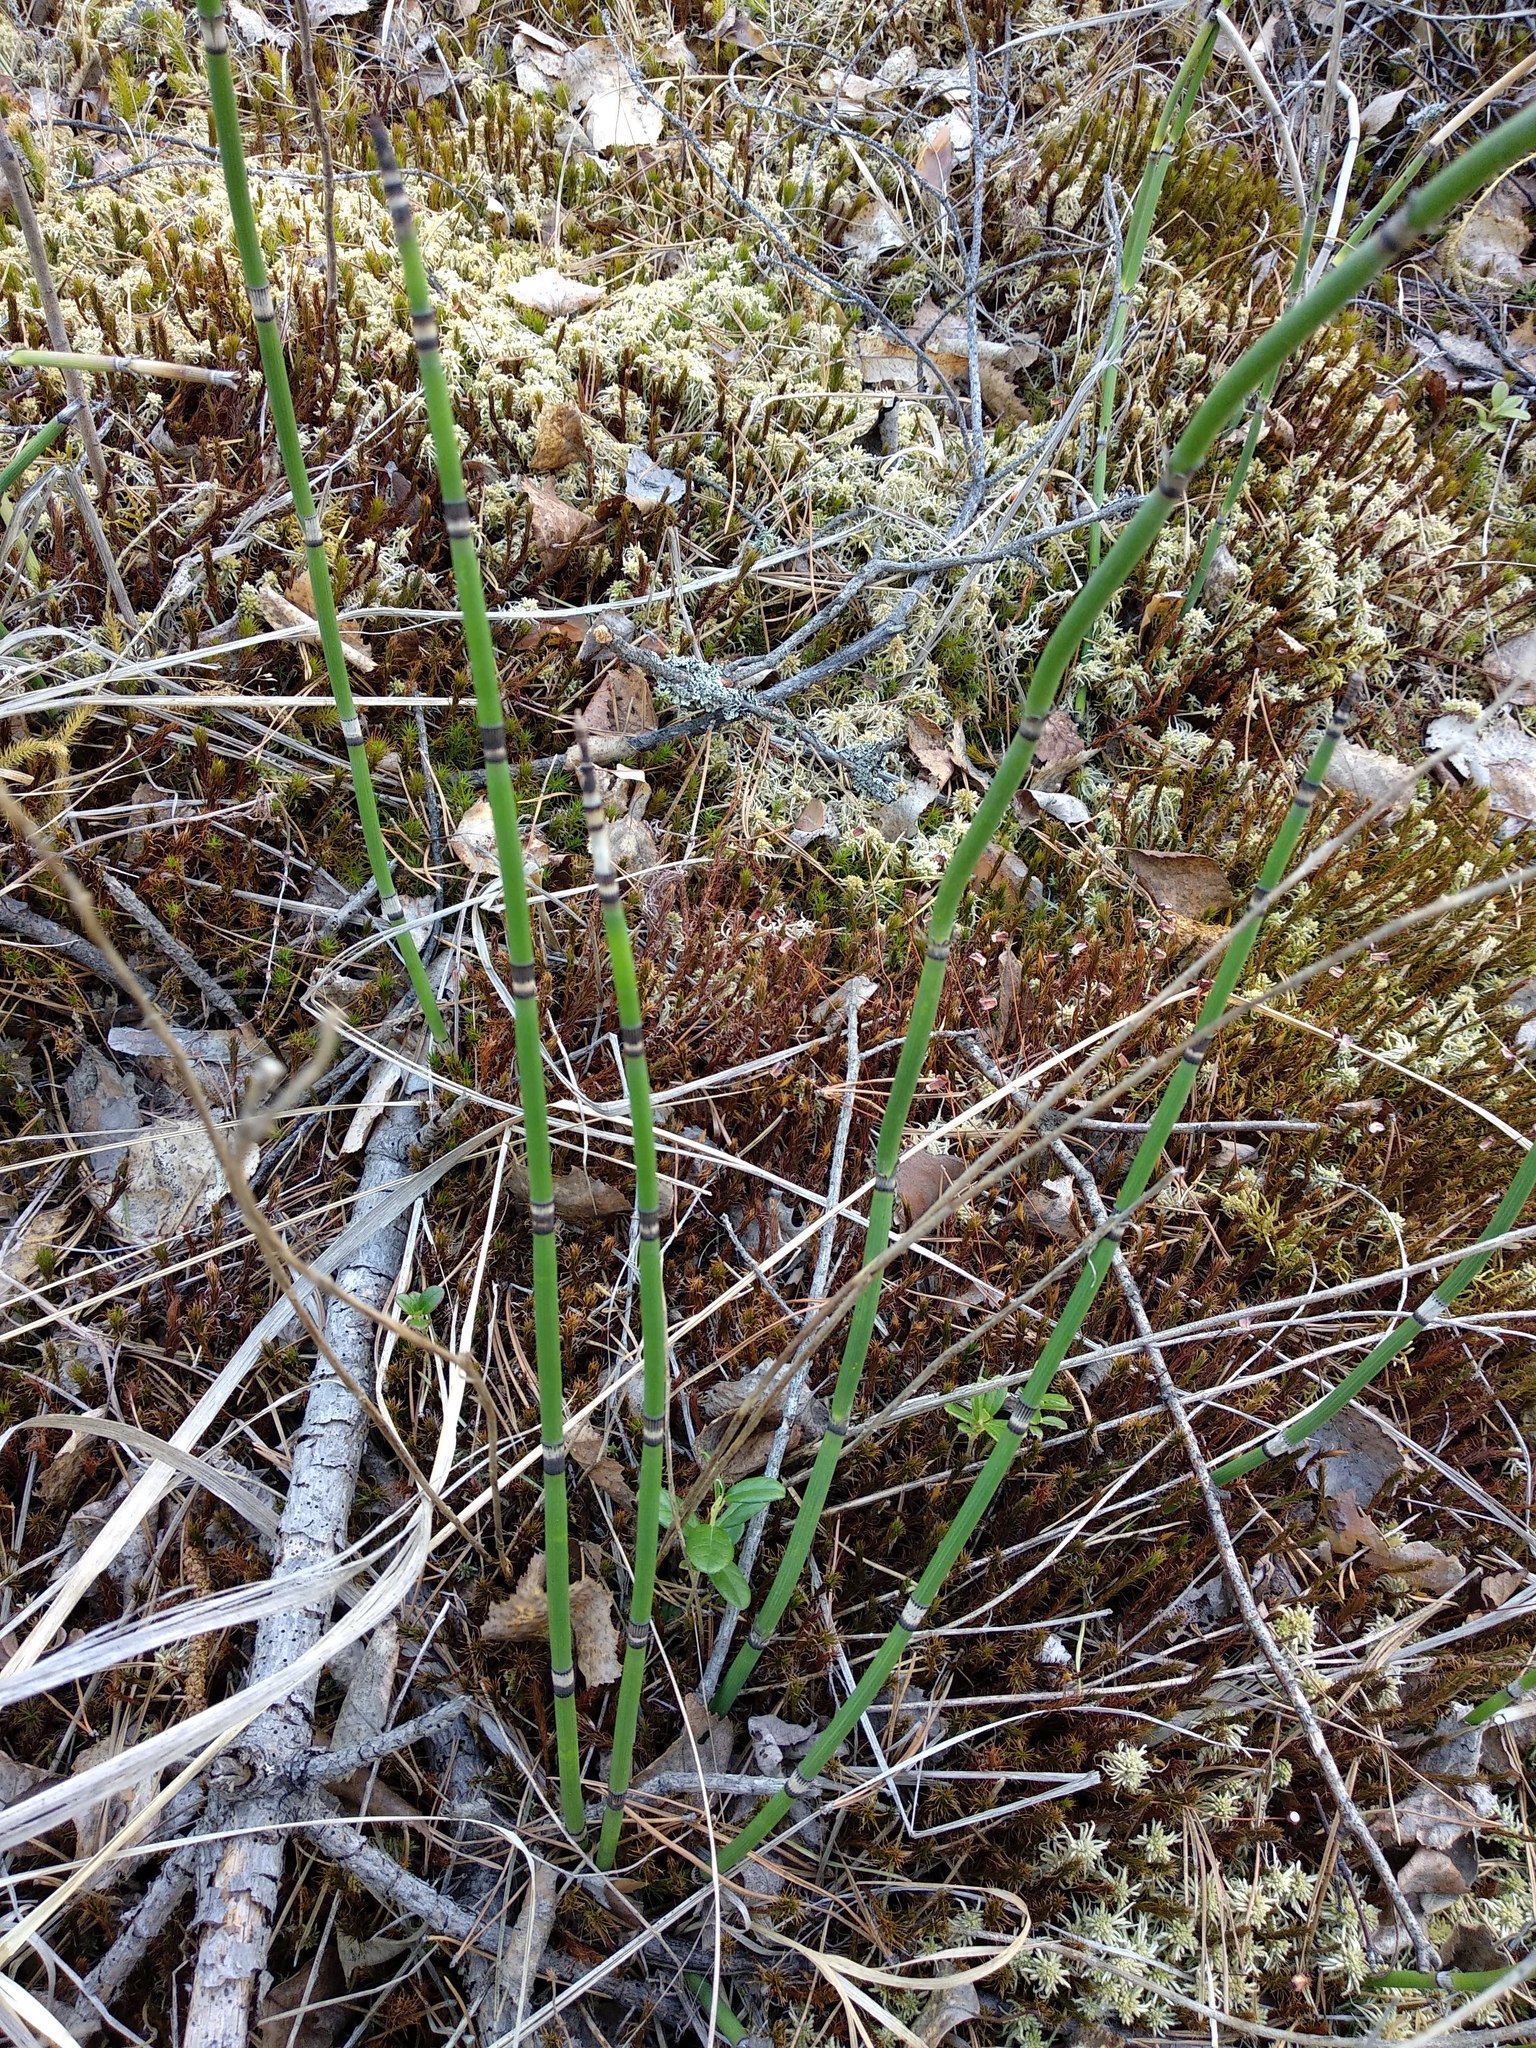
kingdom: Plantae
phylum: Tracheophyta
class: Polypodiopsida
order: Equisetales
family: Equisetaceae
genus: Equisetum
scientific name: Equisetum hyemale
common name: Rough horsetail
